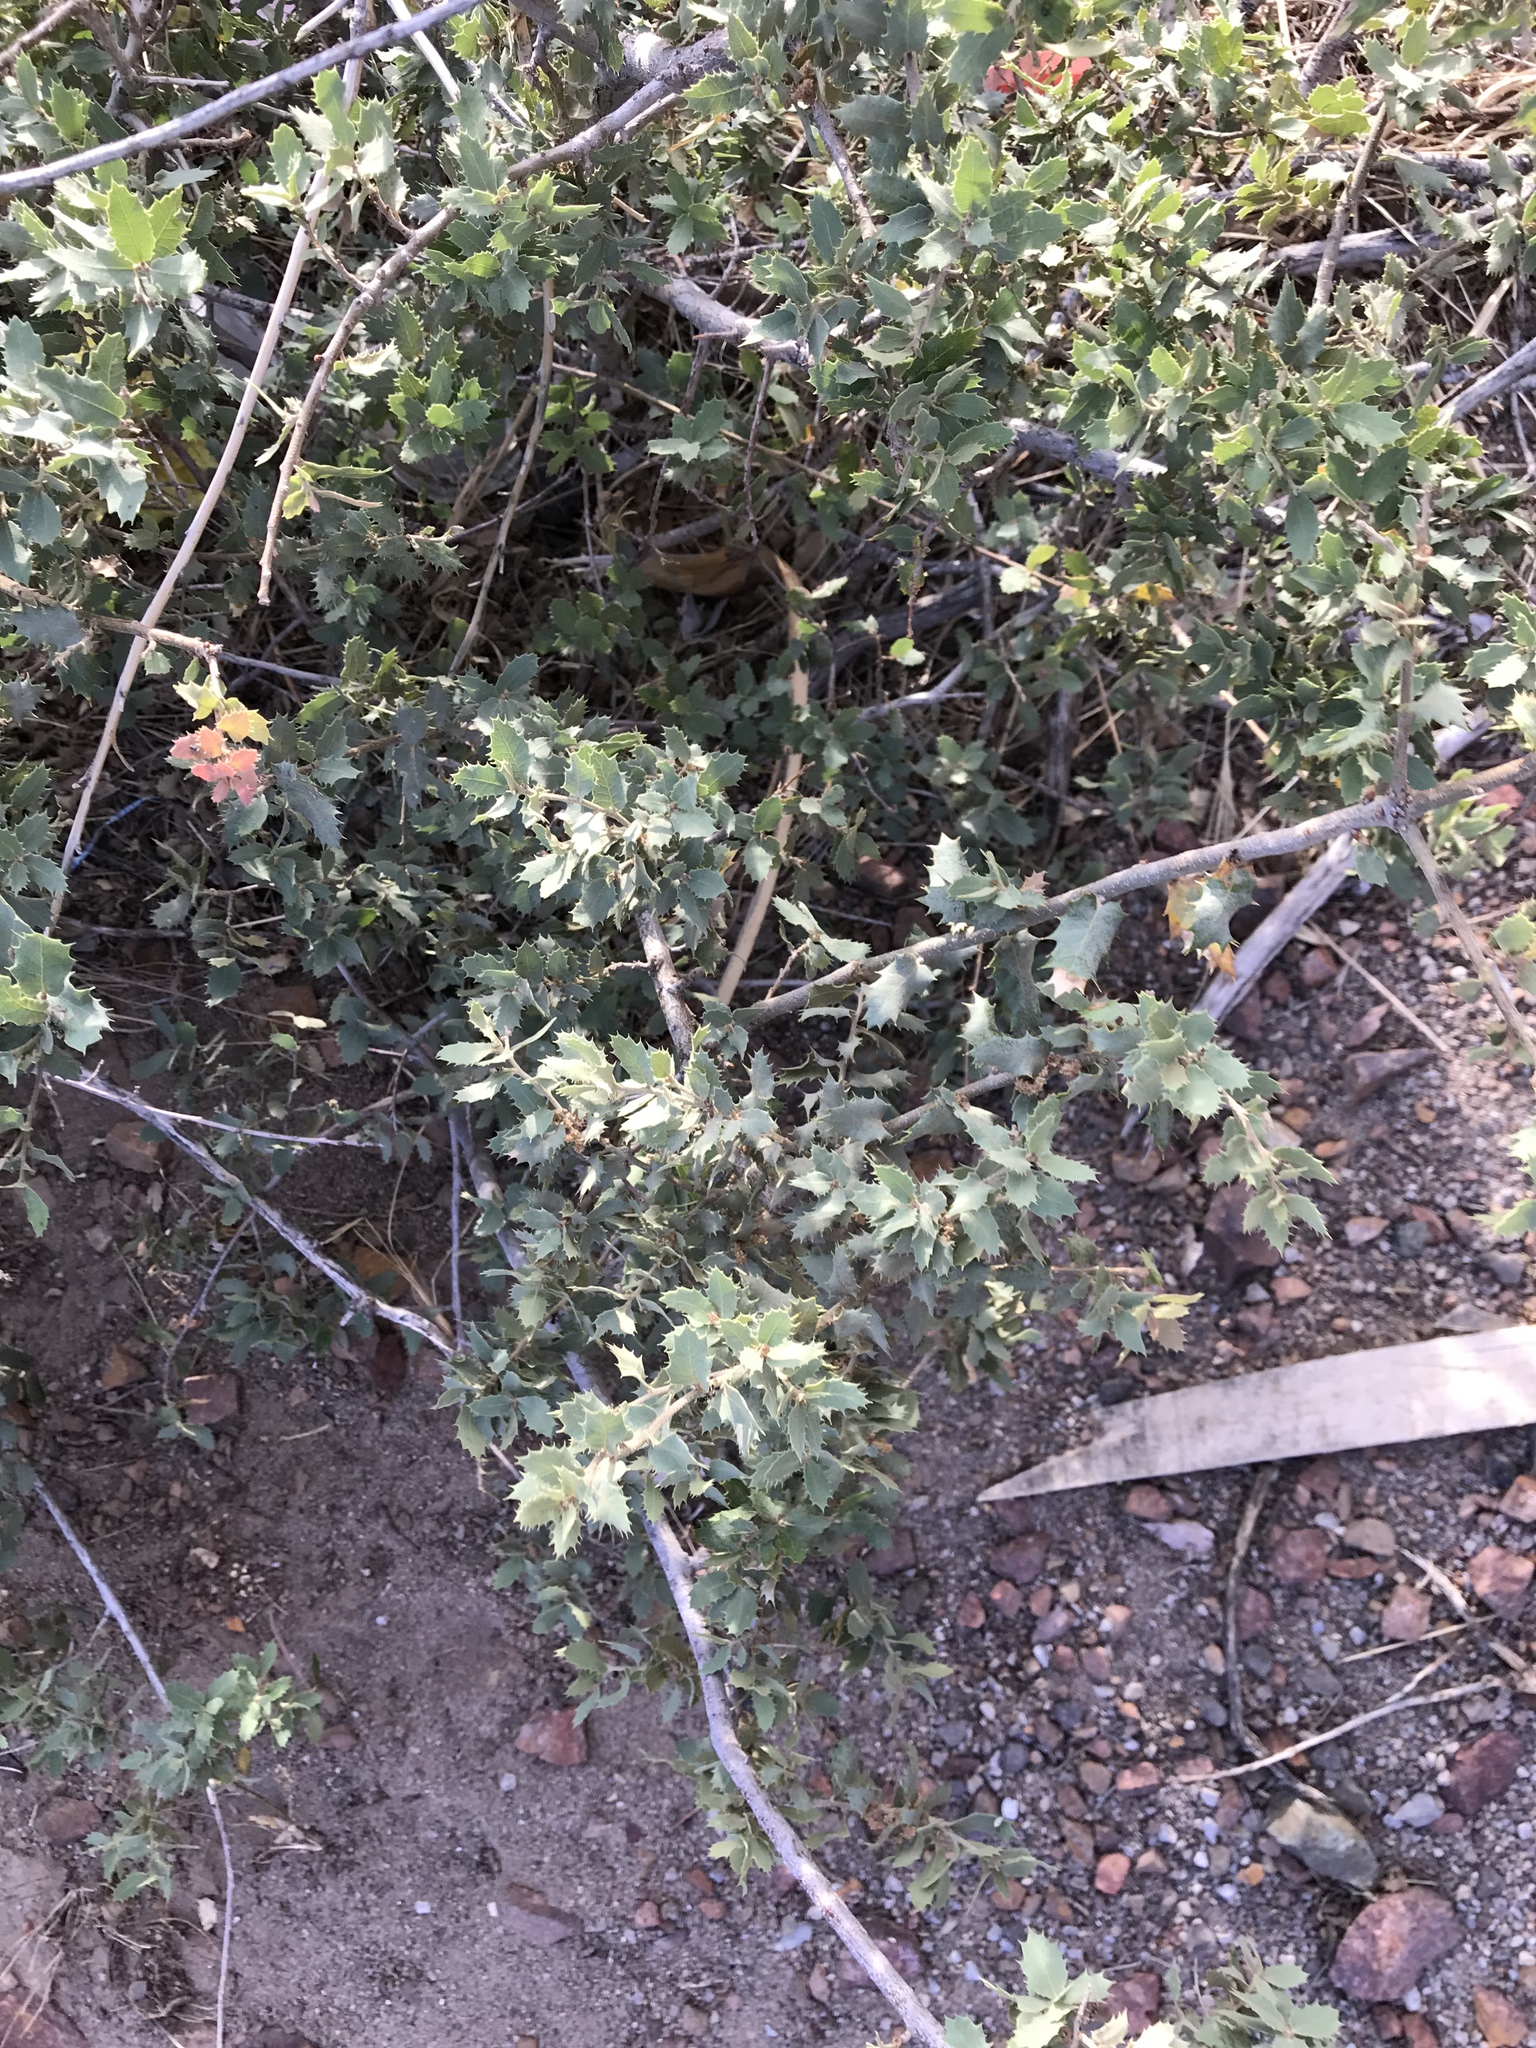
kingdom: Plantae
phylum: Tracheophyta
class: Magnoliopsida
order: Fagales
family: Fagaceae
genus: Quercus
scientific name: Quercus turbinella
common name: Sonoran scrub oak
